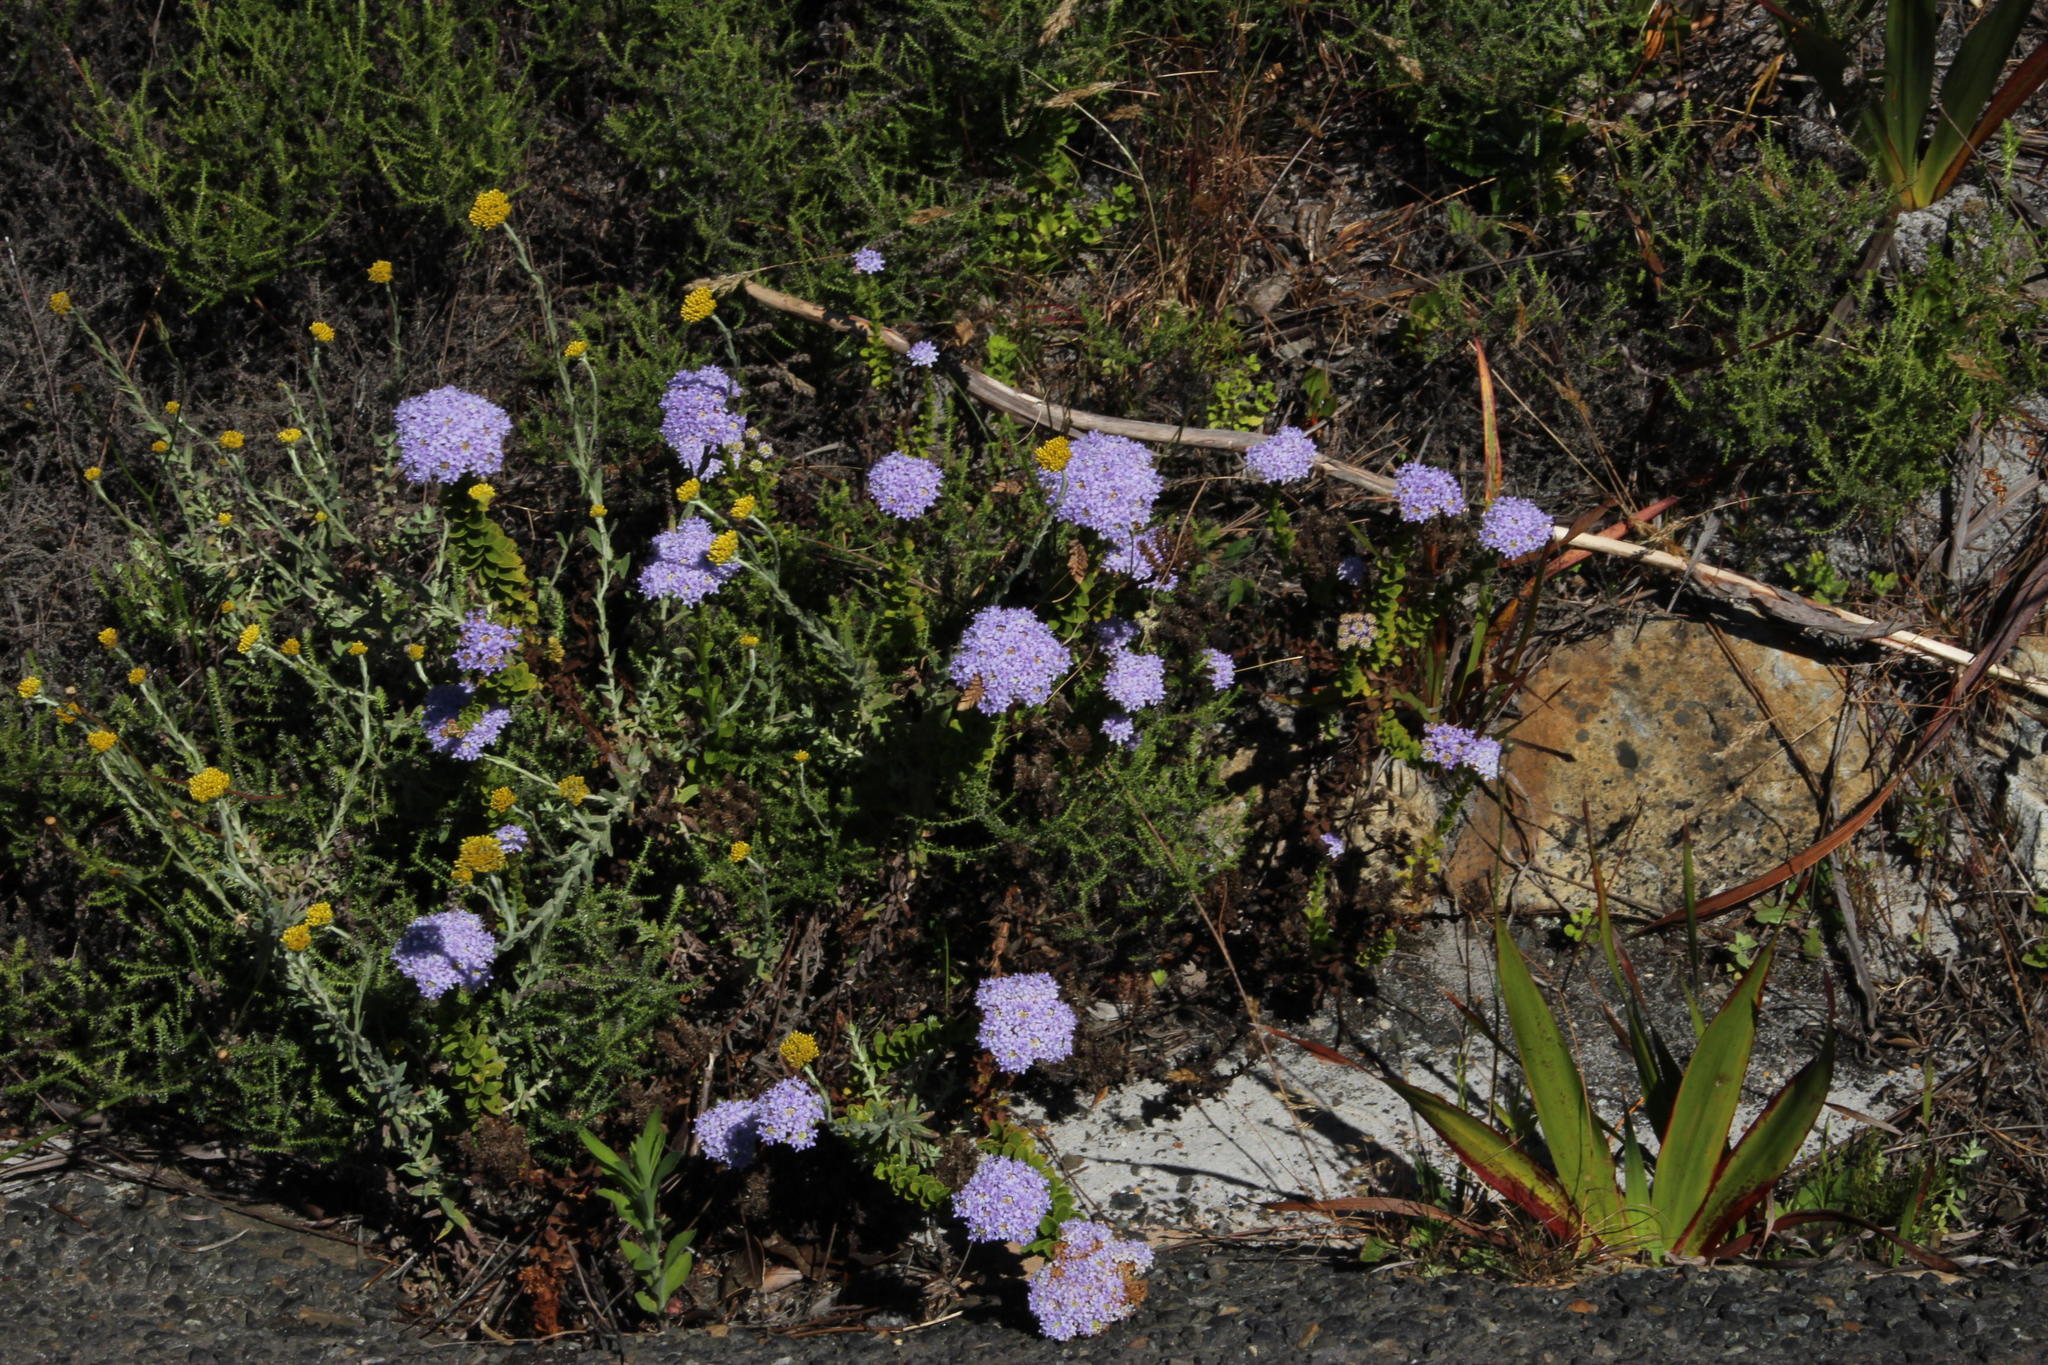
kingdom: Plantae
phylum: Tracheophyta
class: Magnoliopsida
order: Lamiales
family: Scrophulariaceae
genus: Pseudoselago
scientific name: Pseudoselago serrata
